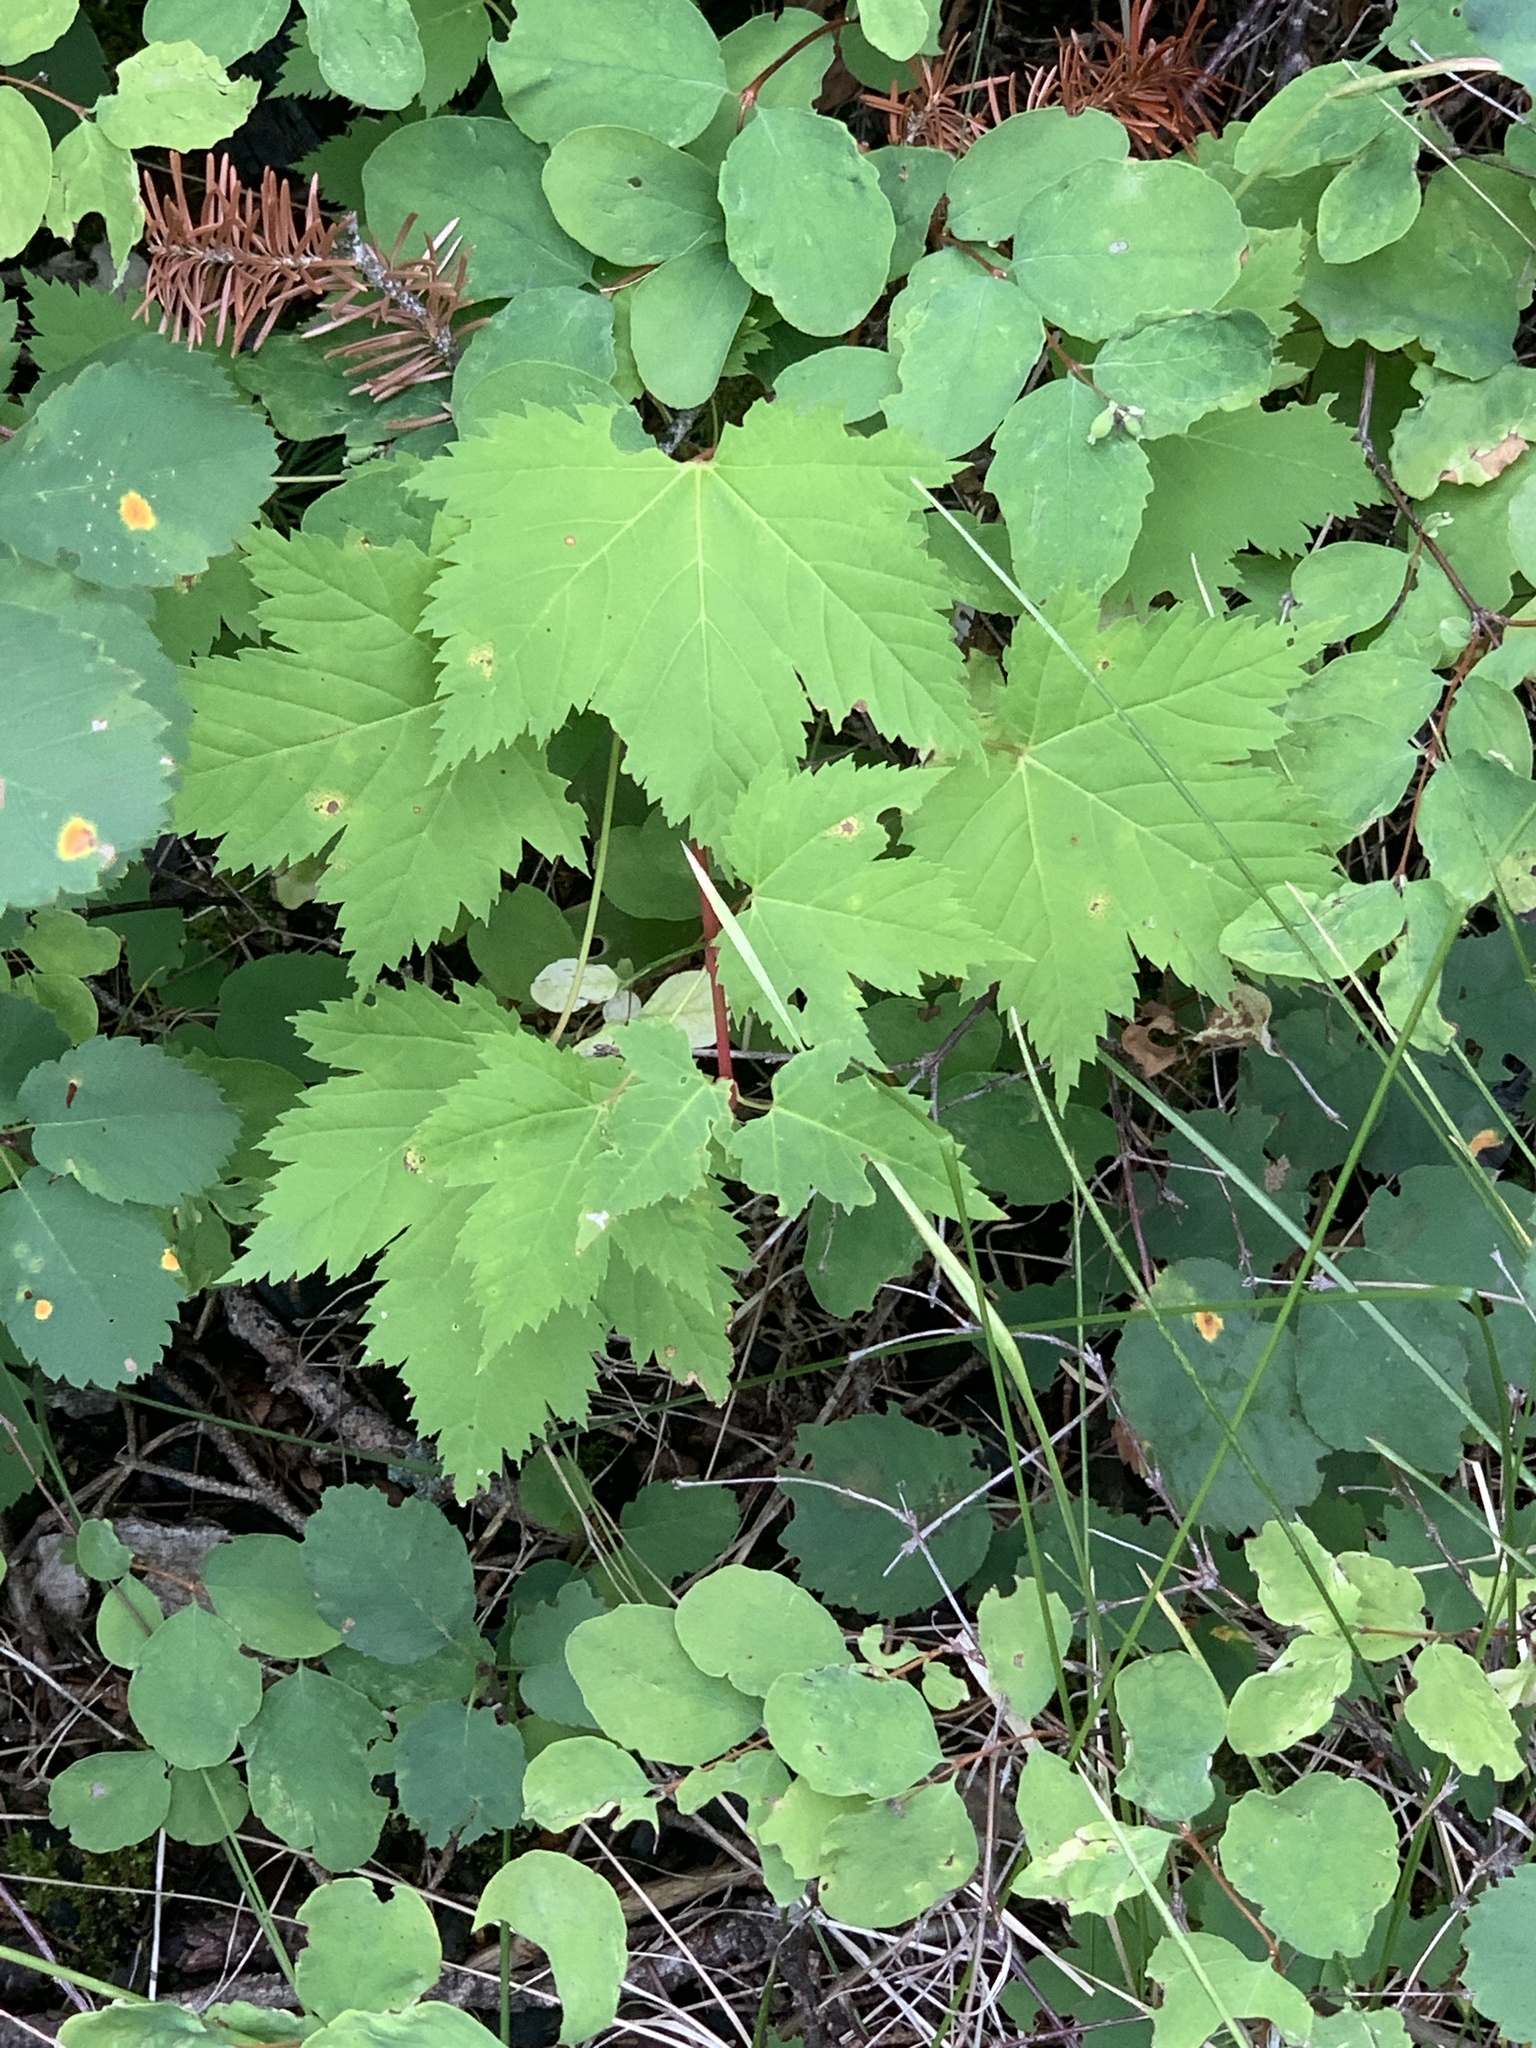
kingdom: Plantae
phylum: Tracheophyta
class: Magnoliopsida
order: Sapindales
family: Sapindaceae
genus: Acer
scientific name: Acer glabrum
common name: Rocky mountain maple
